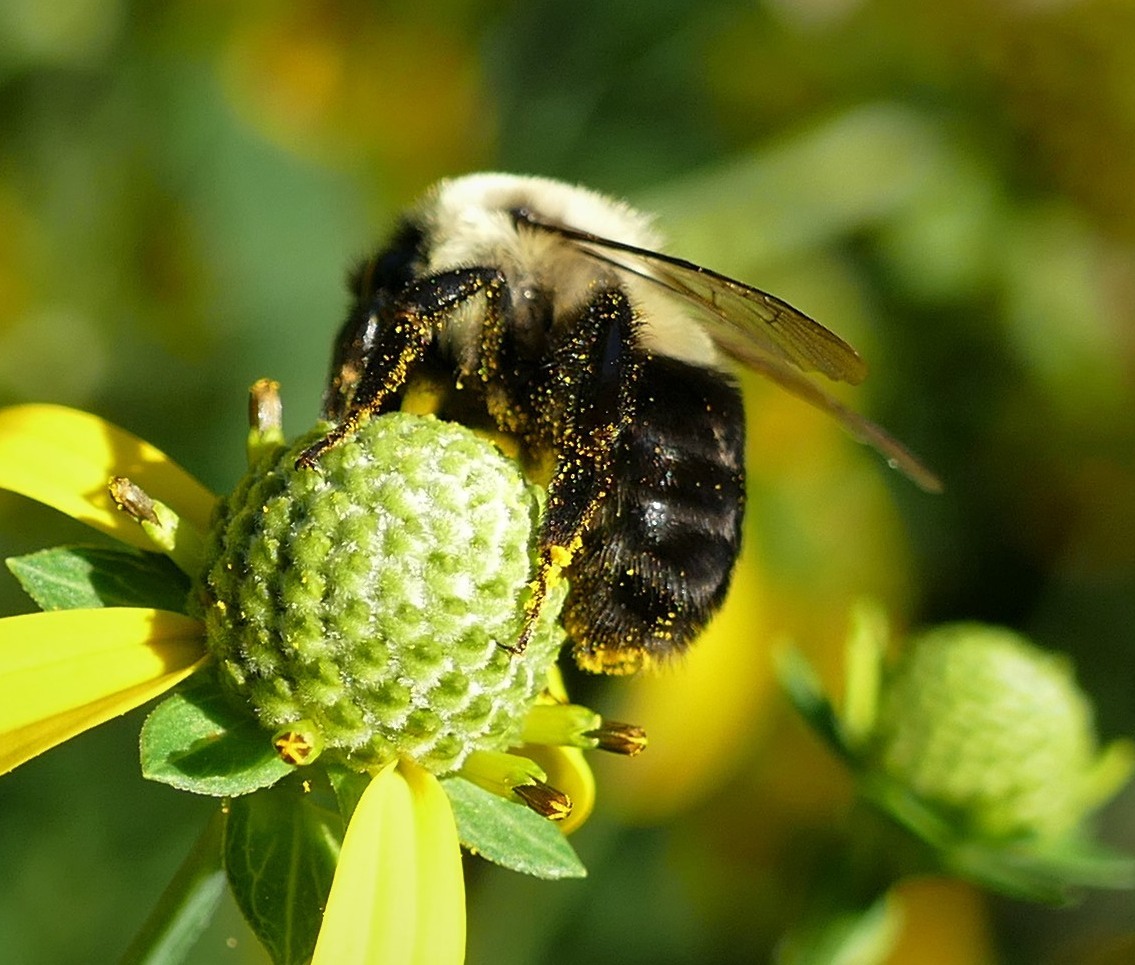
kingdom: Animalia
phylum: Arthropoda
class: Insecta
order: Hymenoptera
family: Apidae
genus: Bombus
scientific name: Bombus impatiens
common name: Common eastern bumble bee
